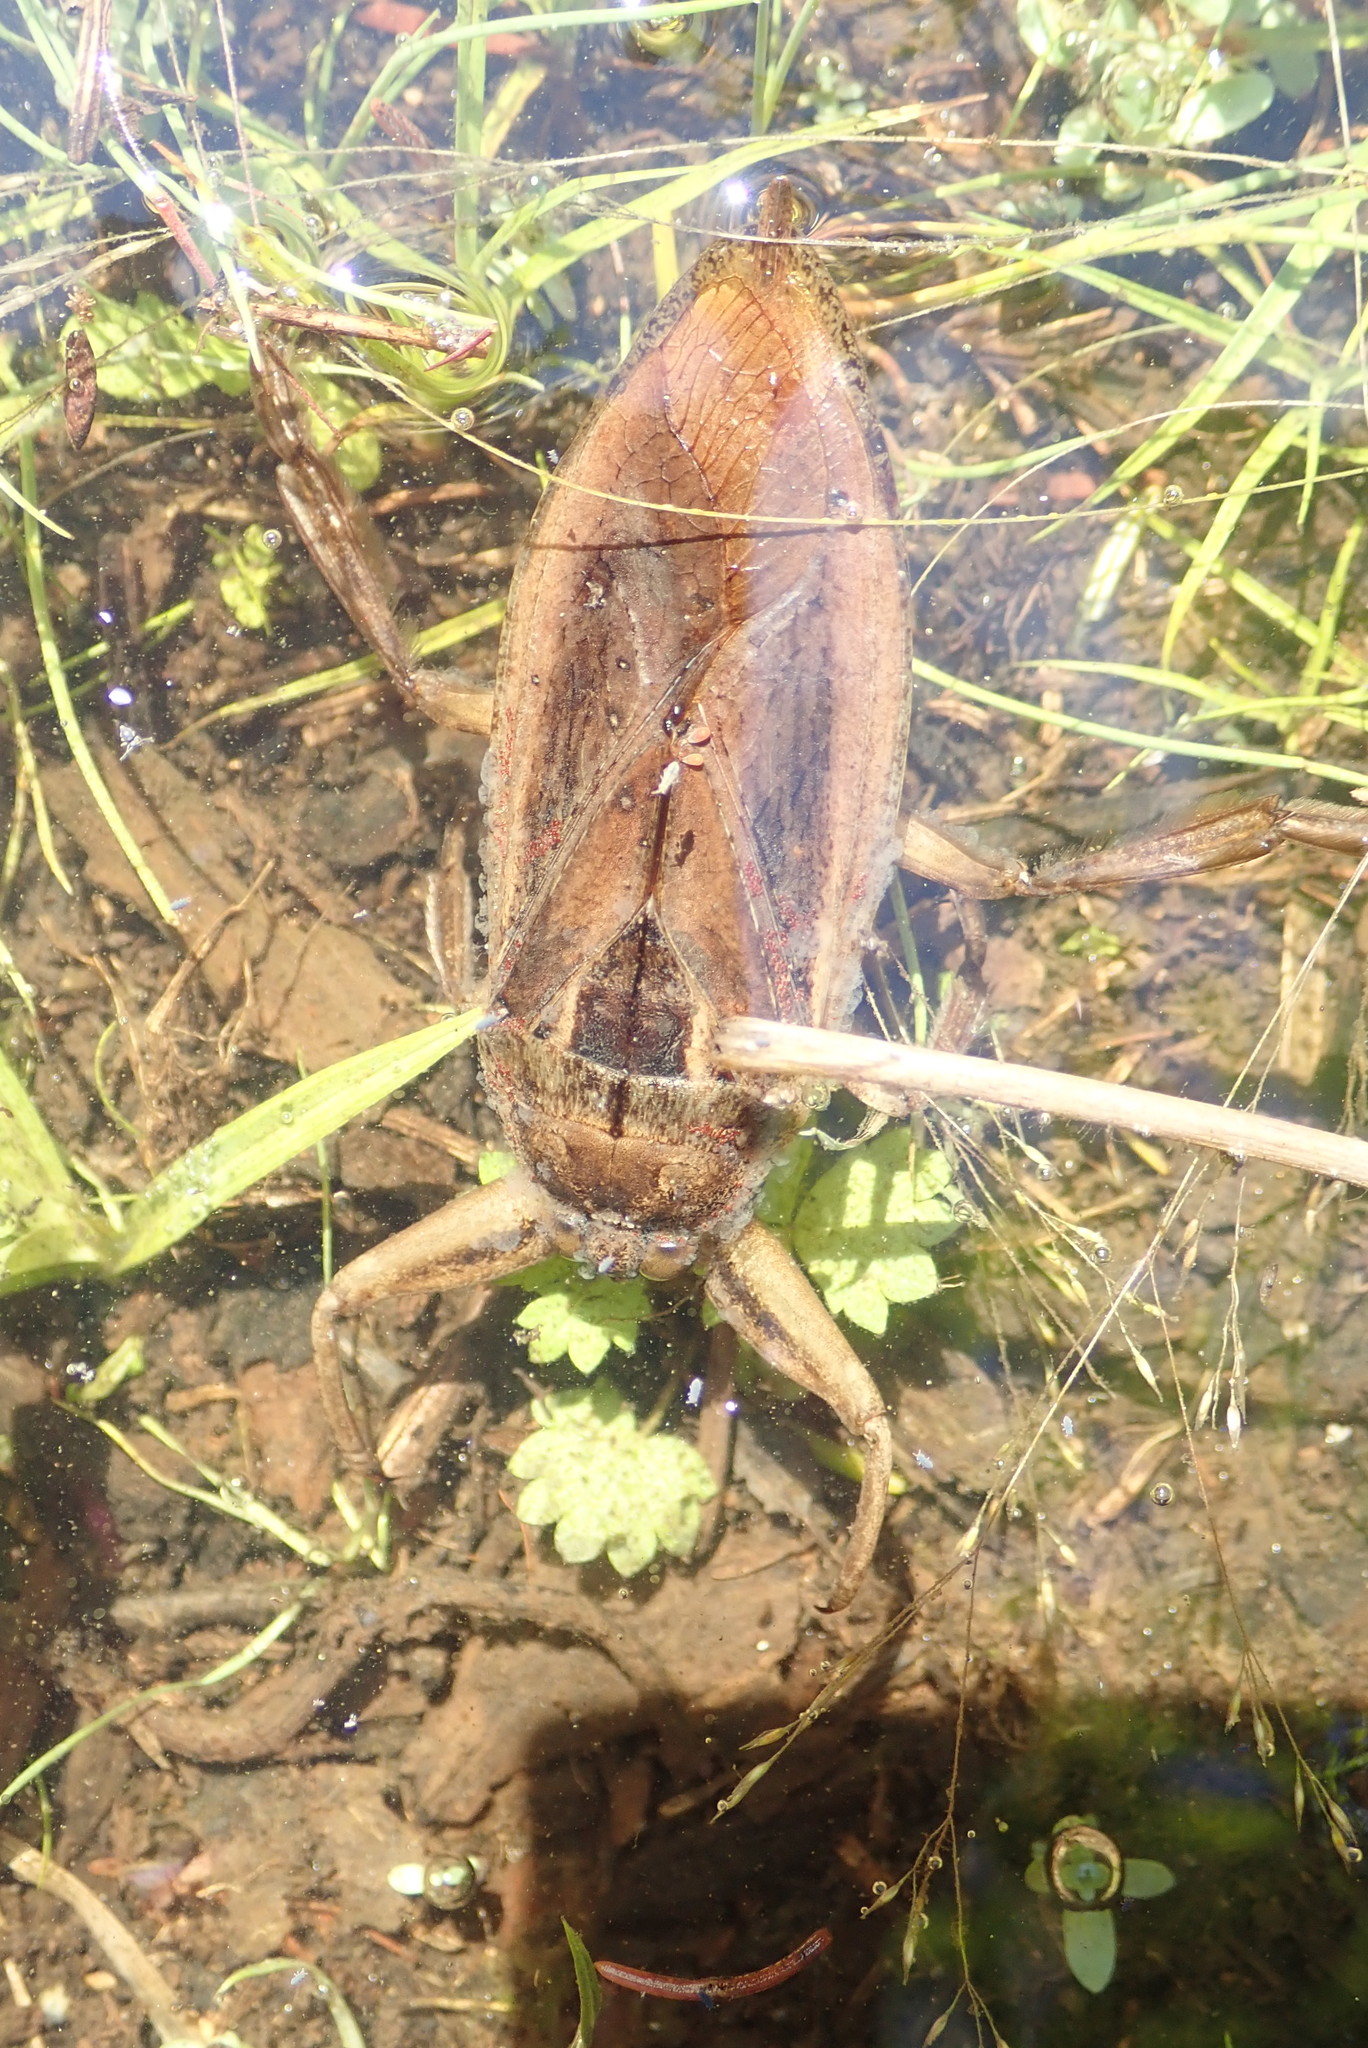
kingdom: Animalia
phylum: Arthropoda
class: Insecta
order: Hemiptera
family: Belostomatidae
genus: Lethocerus
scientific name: Lethocerus americanus
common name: Giant water bug
